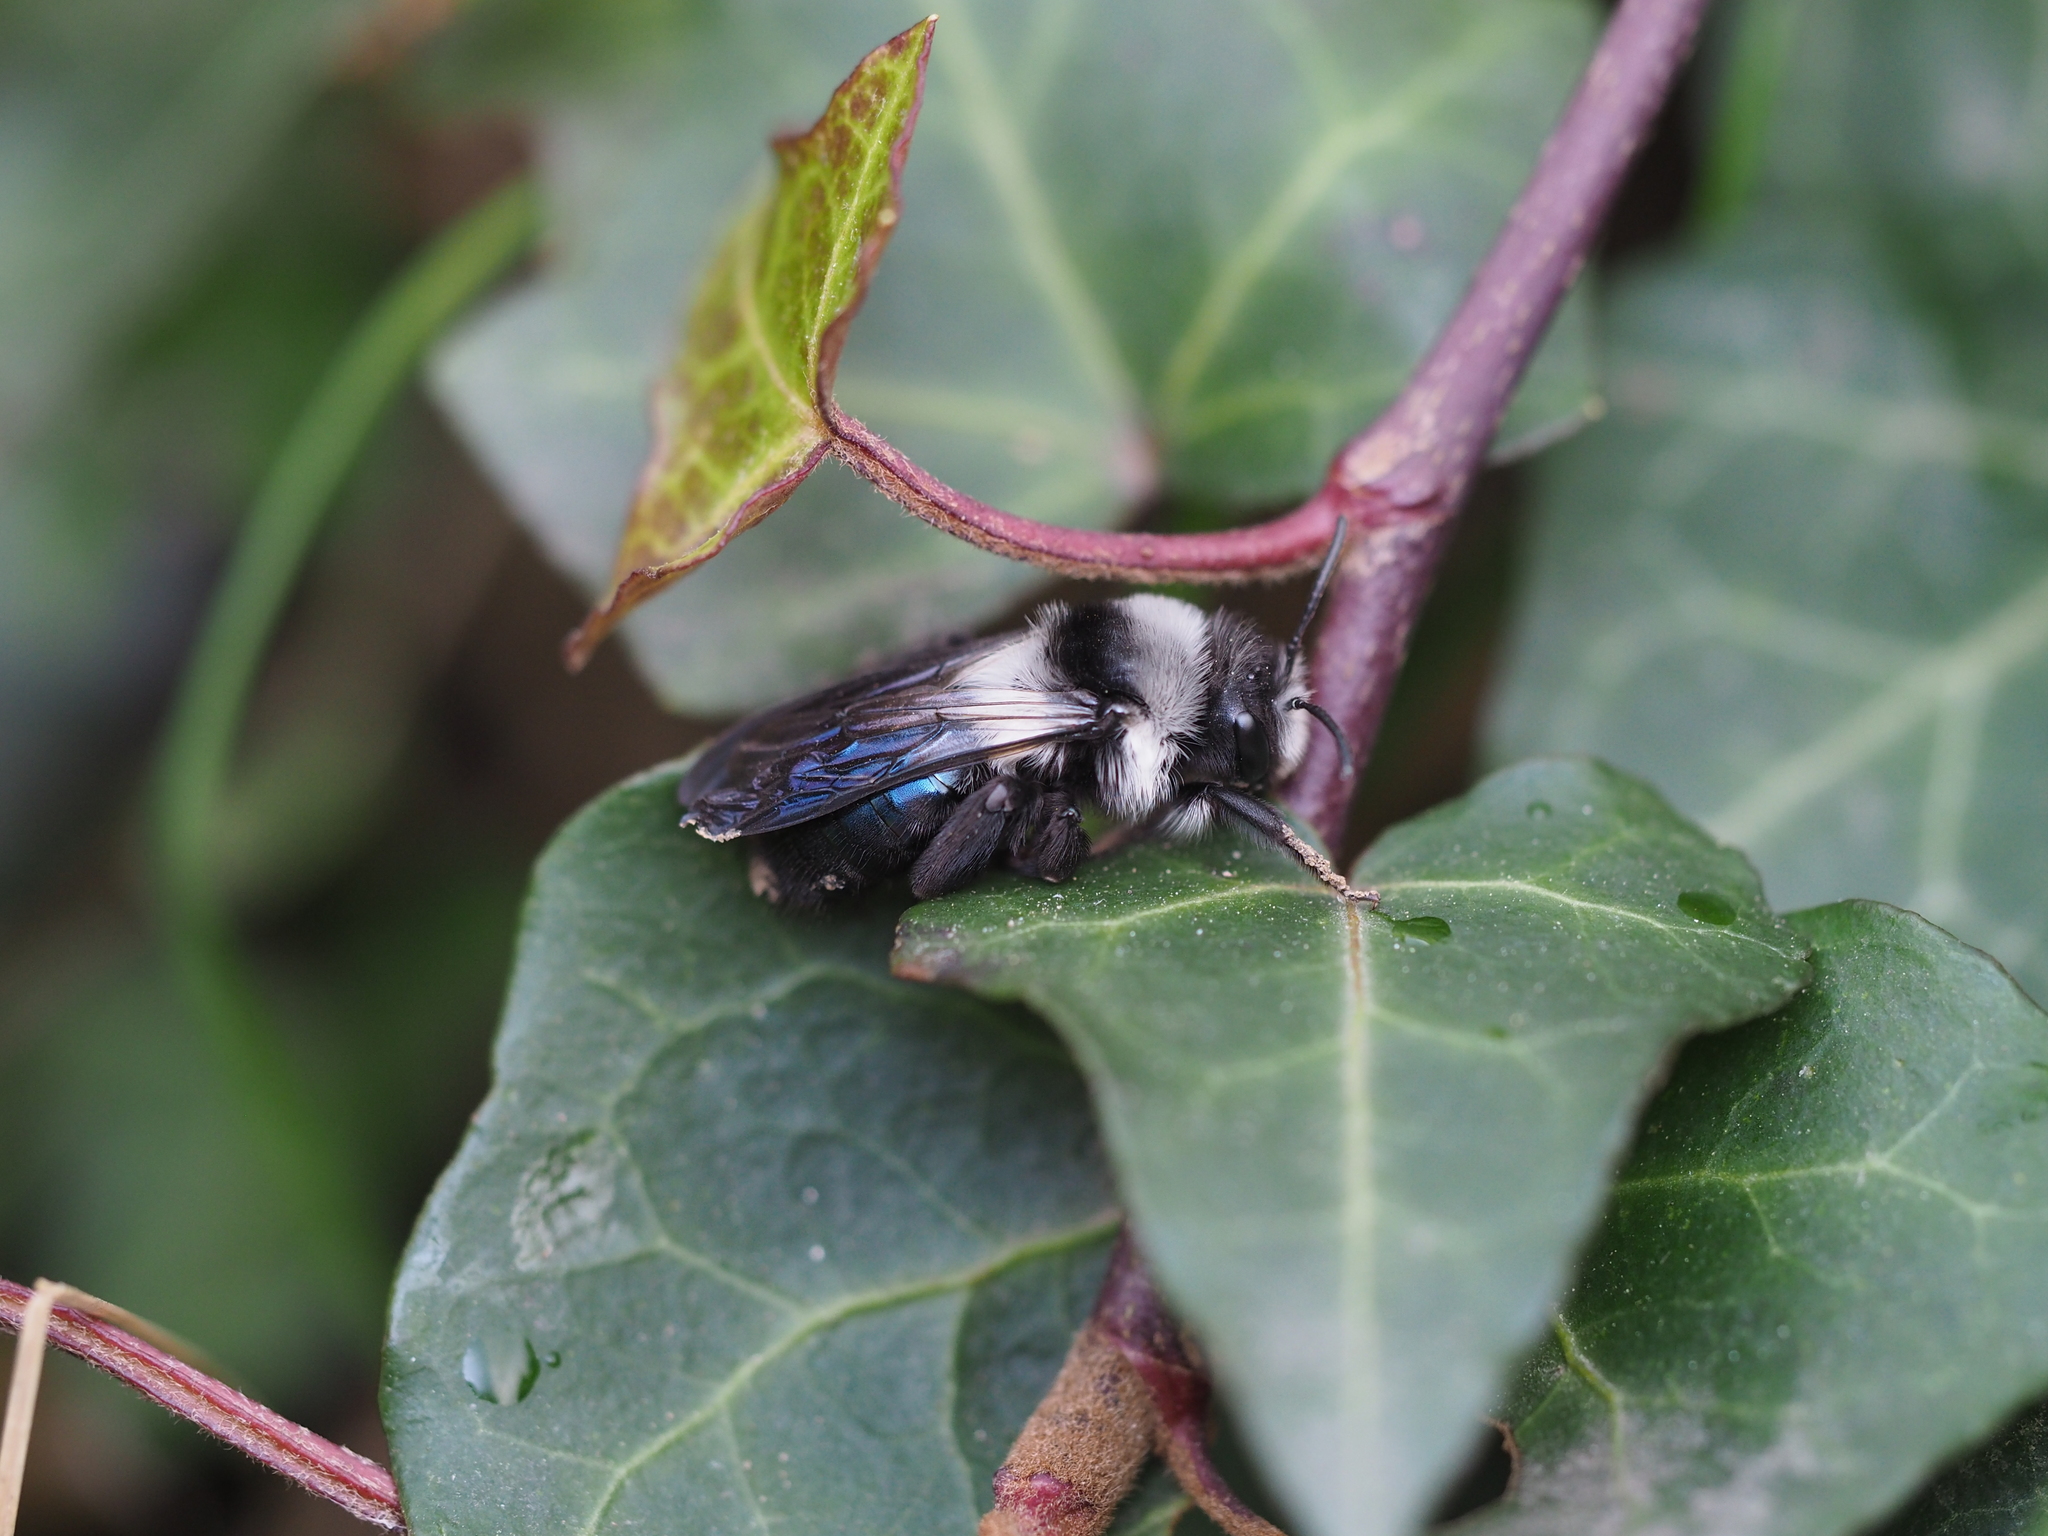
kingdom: Animalia
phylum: Arthropoda
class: Insecta
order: Hymenoptera
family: Andrenidae
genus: Andrena
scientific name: Andrena cineraria
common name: Ashy mining bee
